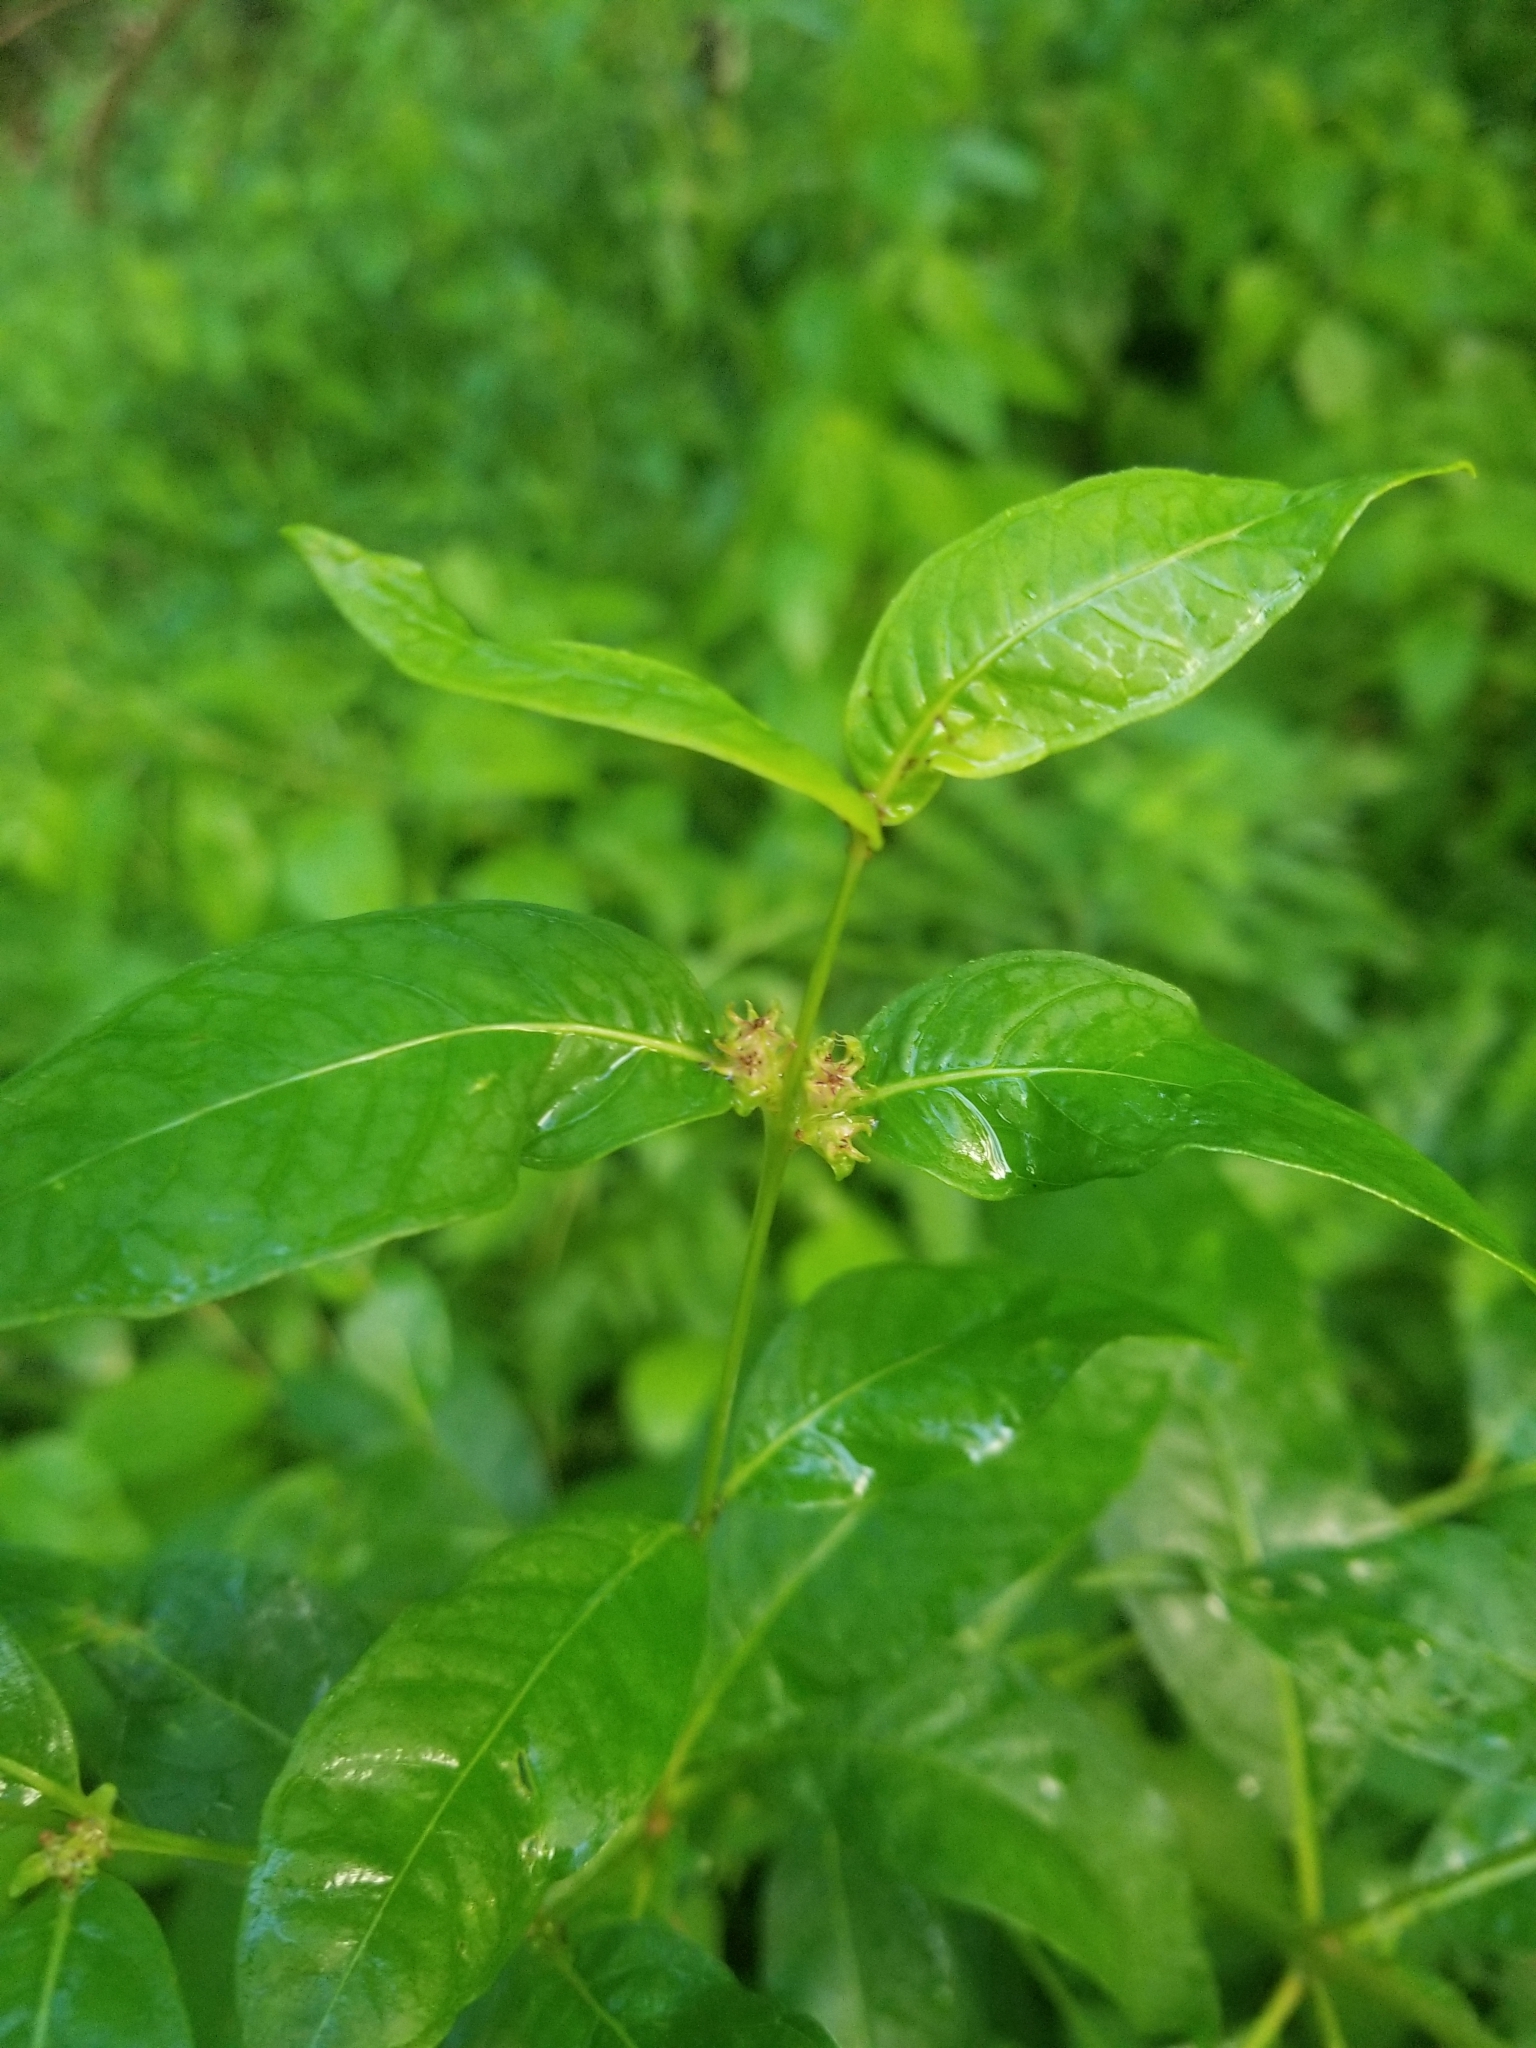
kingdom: Plantae
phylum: Tracheophyta
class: Magnoliopsida
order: Myrtales
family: Lythraceae
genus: Decodon
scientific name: Decodon verticillatus
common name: Hairy swamp loosestrife
